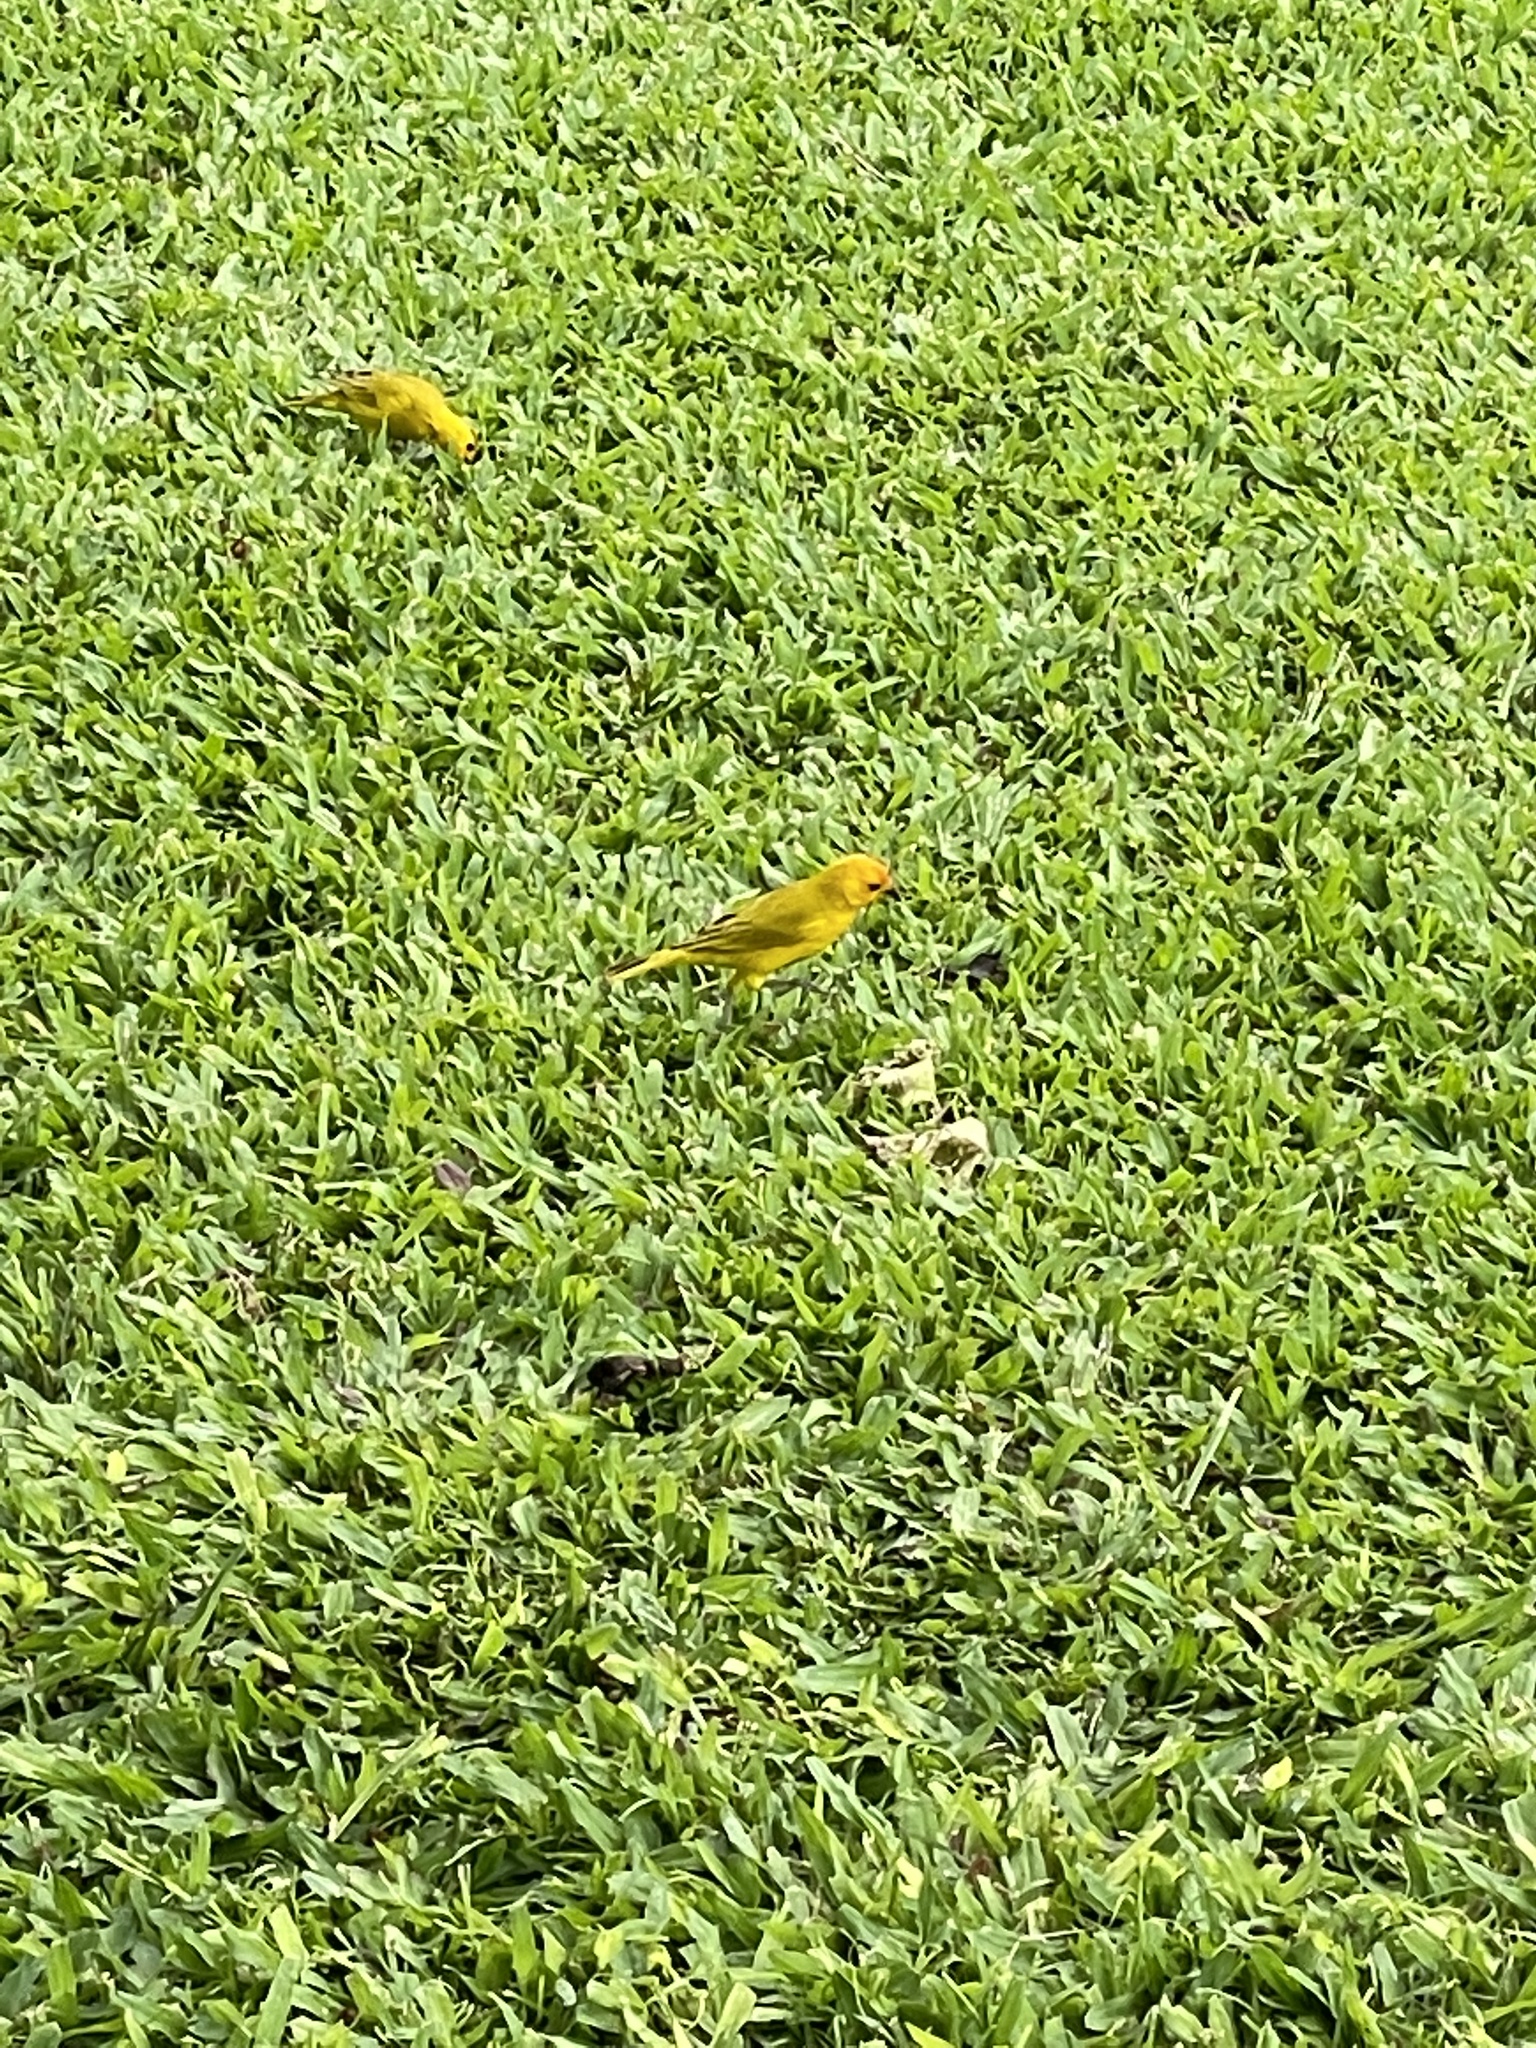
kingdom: Animalia
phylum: Chordata
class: Aves
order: Passeriformes
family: Thraupidae
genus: Sicalis
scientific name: Sicalis flaveola
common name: Saffron finch
